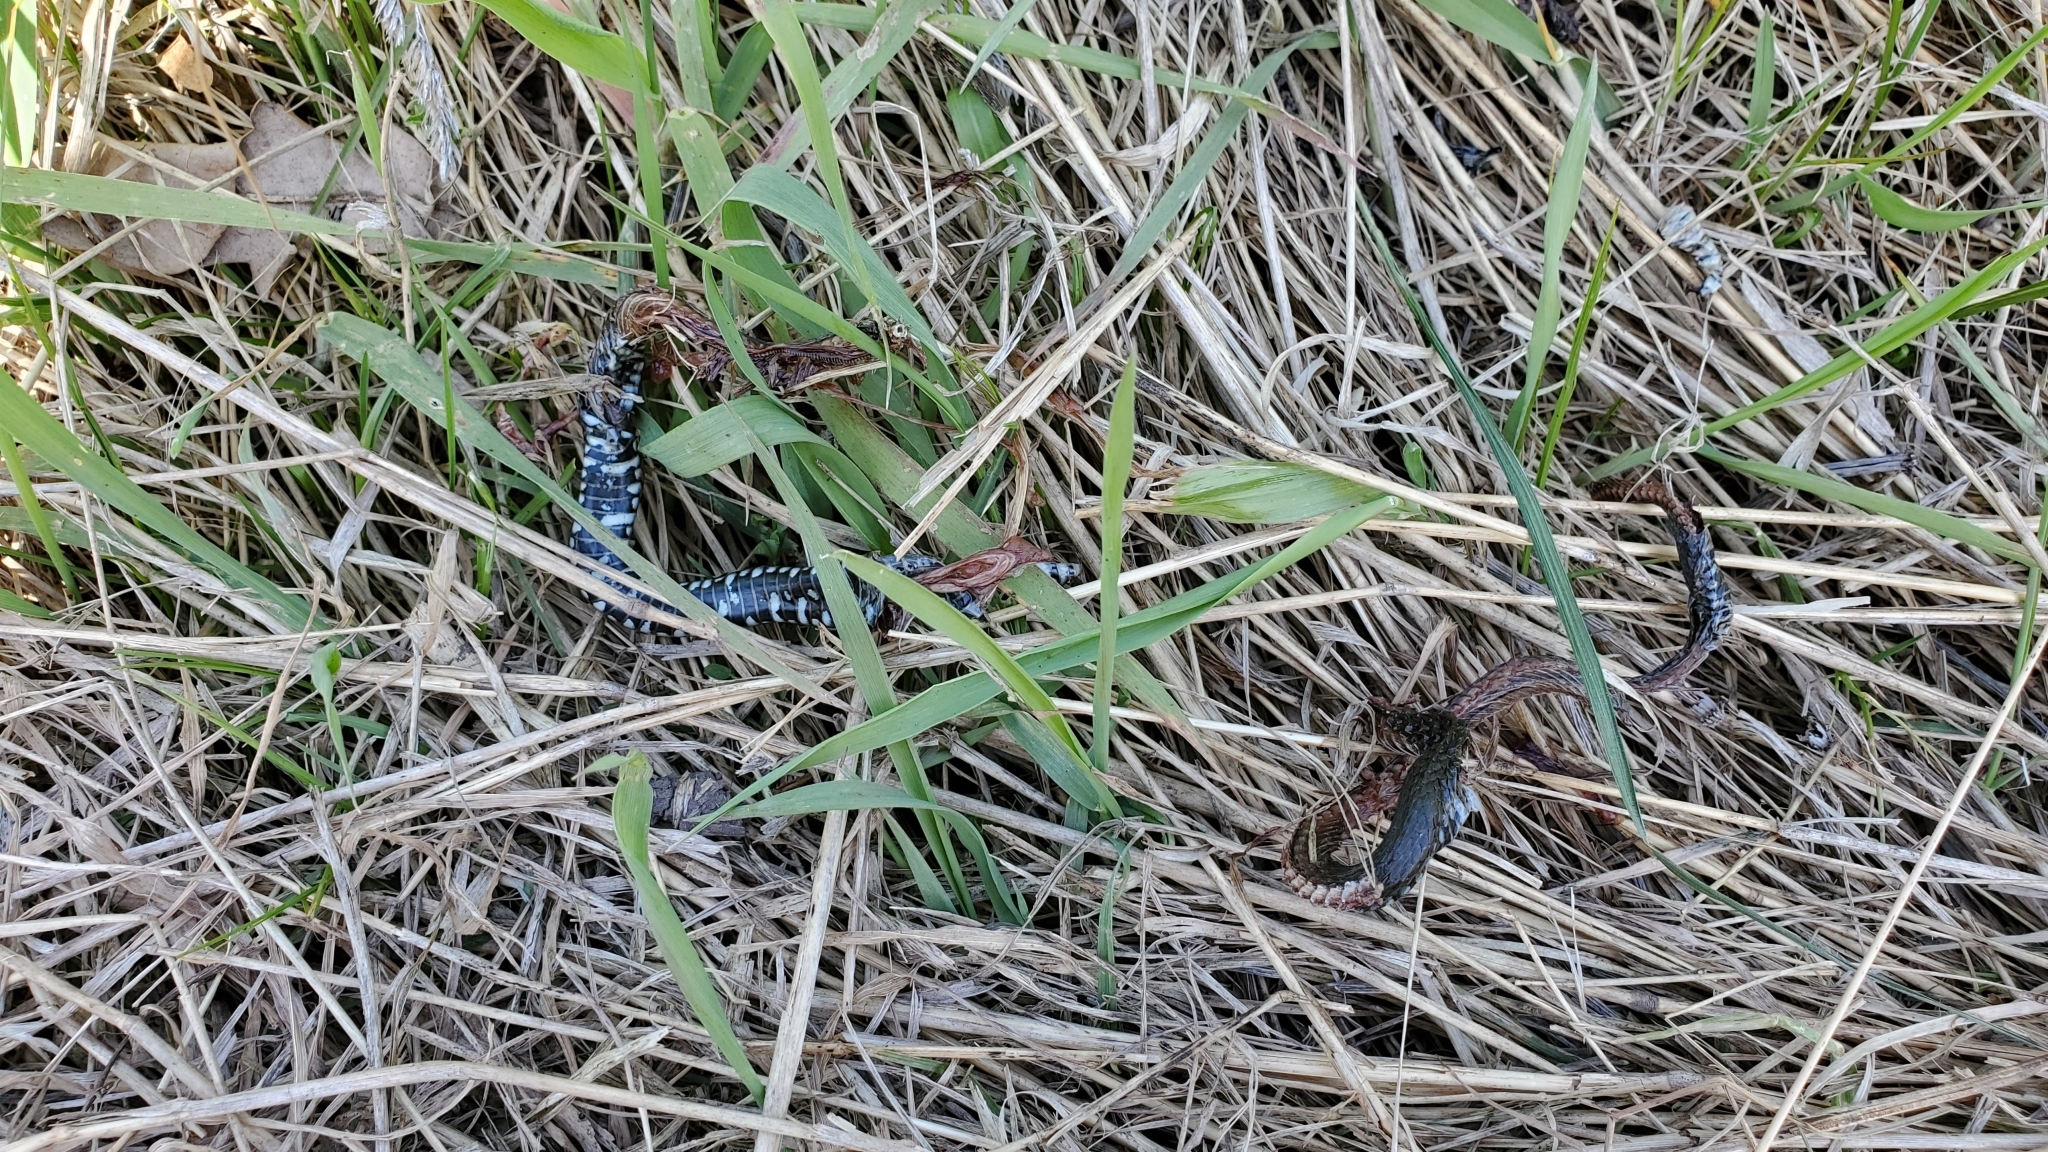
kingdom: Animalia
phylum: Chordata
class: Squamata
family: Colubridae
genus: Natrix
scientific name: Natrix natrix
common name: Grass snake
